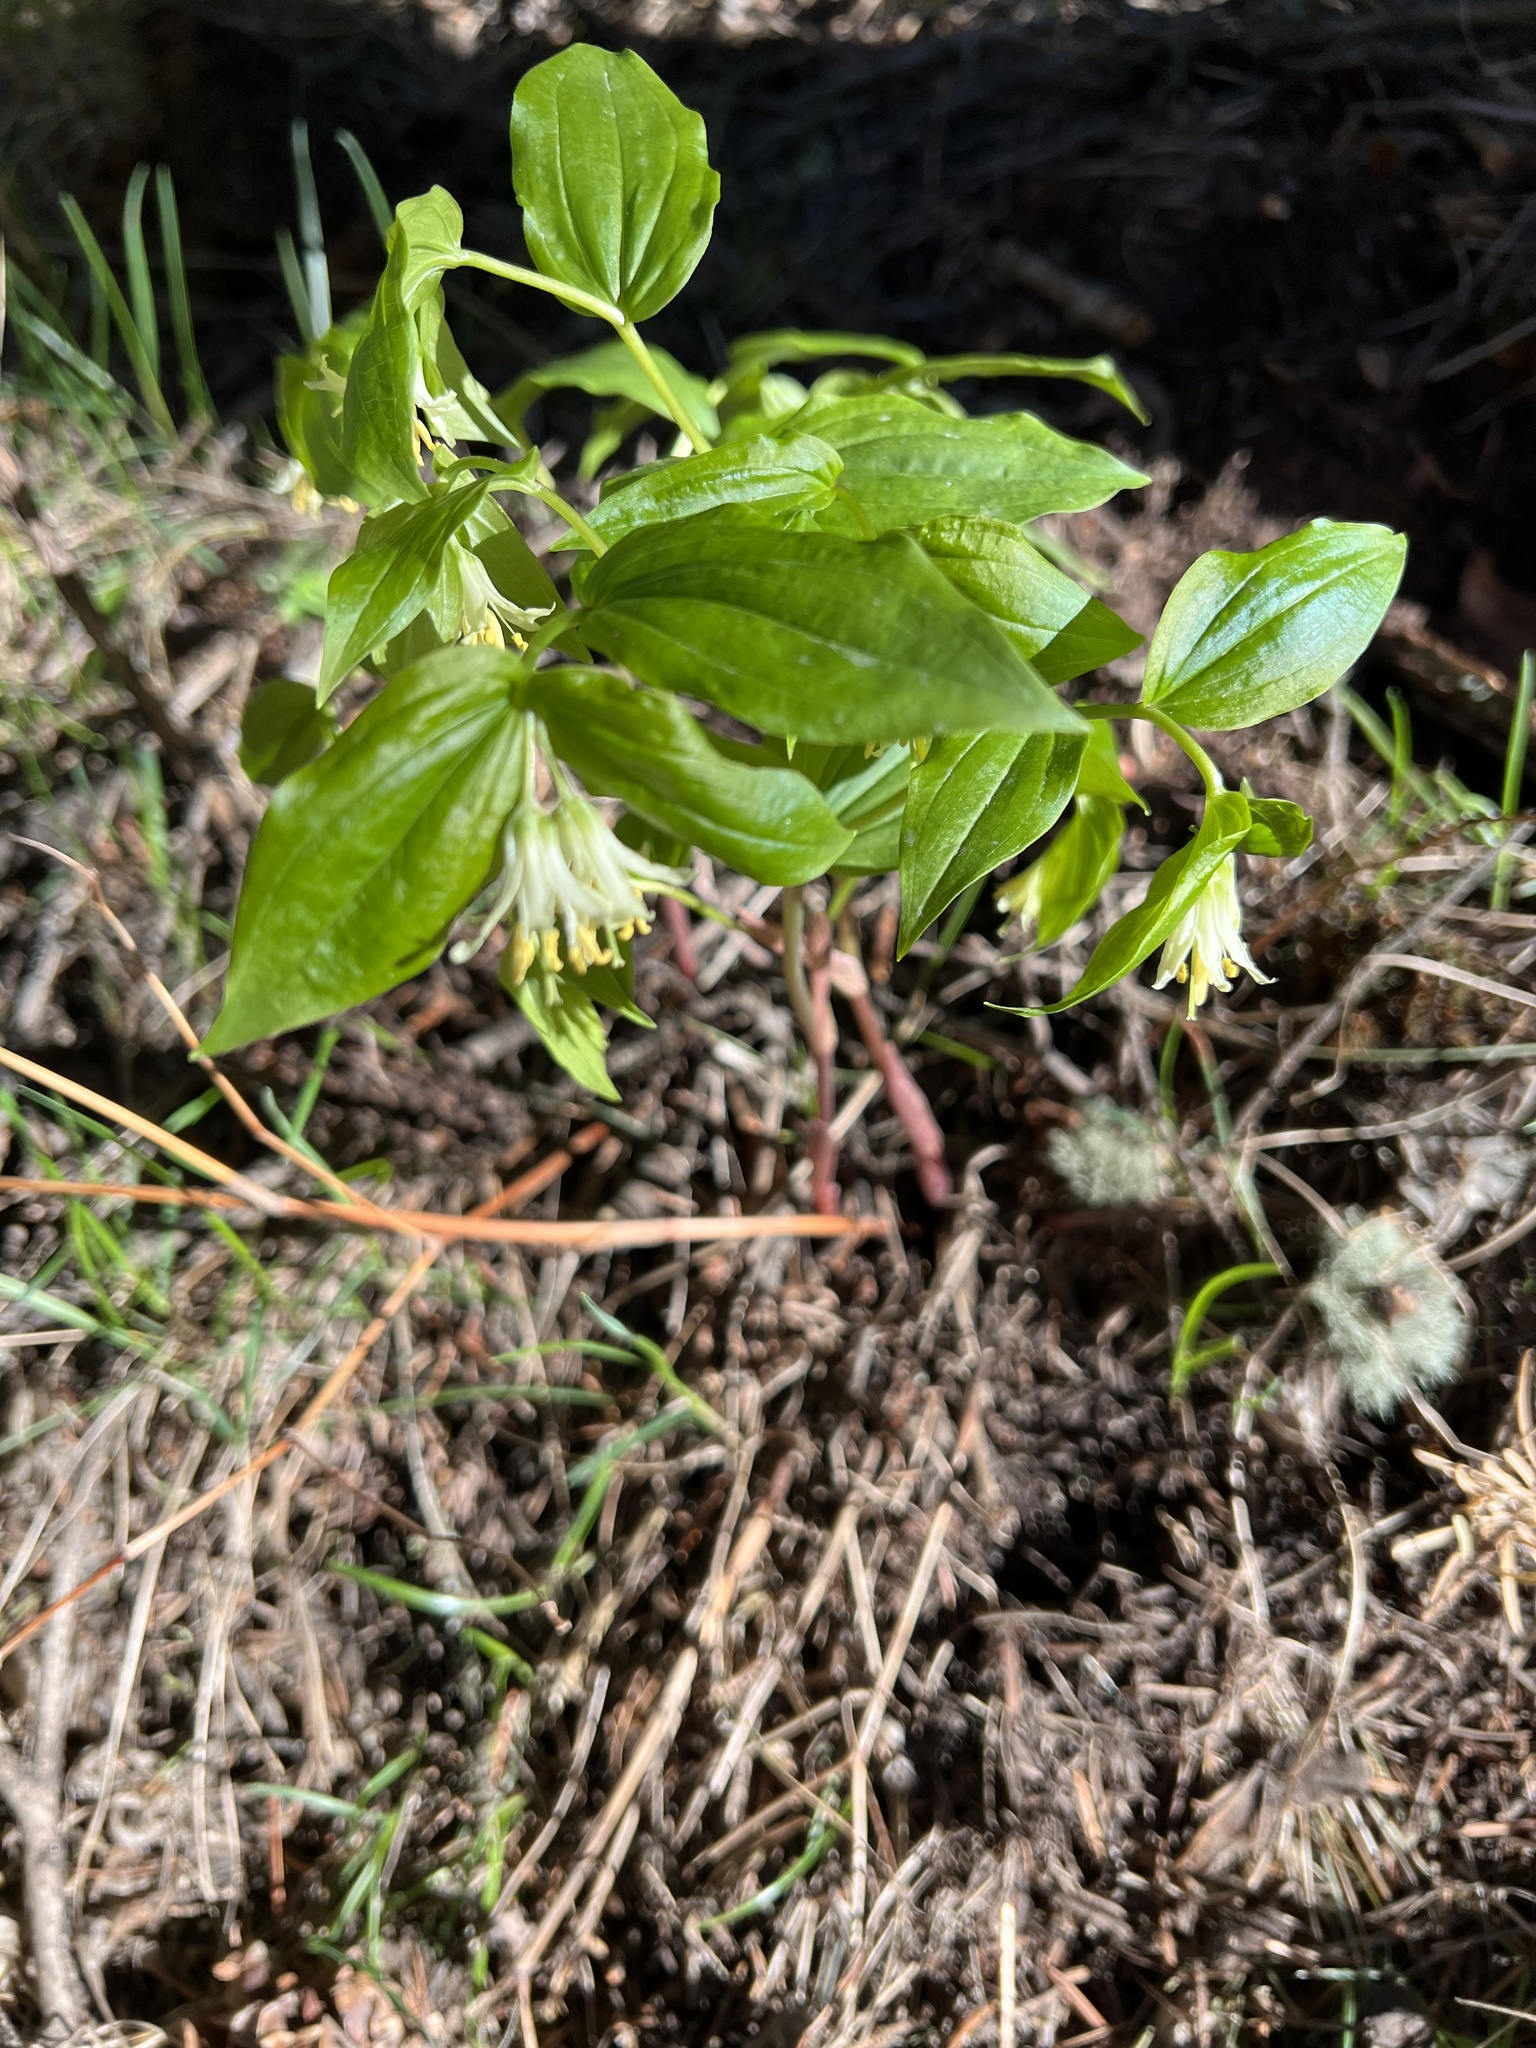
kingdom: Plantae
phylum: Tracheophyta
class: Liliopsida
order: Liliales
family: Liliaceae
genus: Prosartes
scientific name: Prosartes trachycarpa
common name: Rough-fruit fairy-bells
